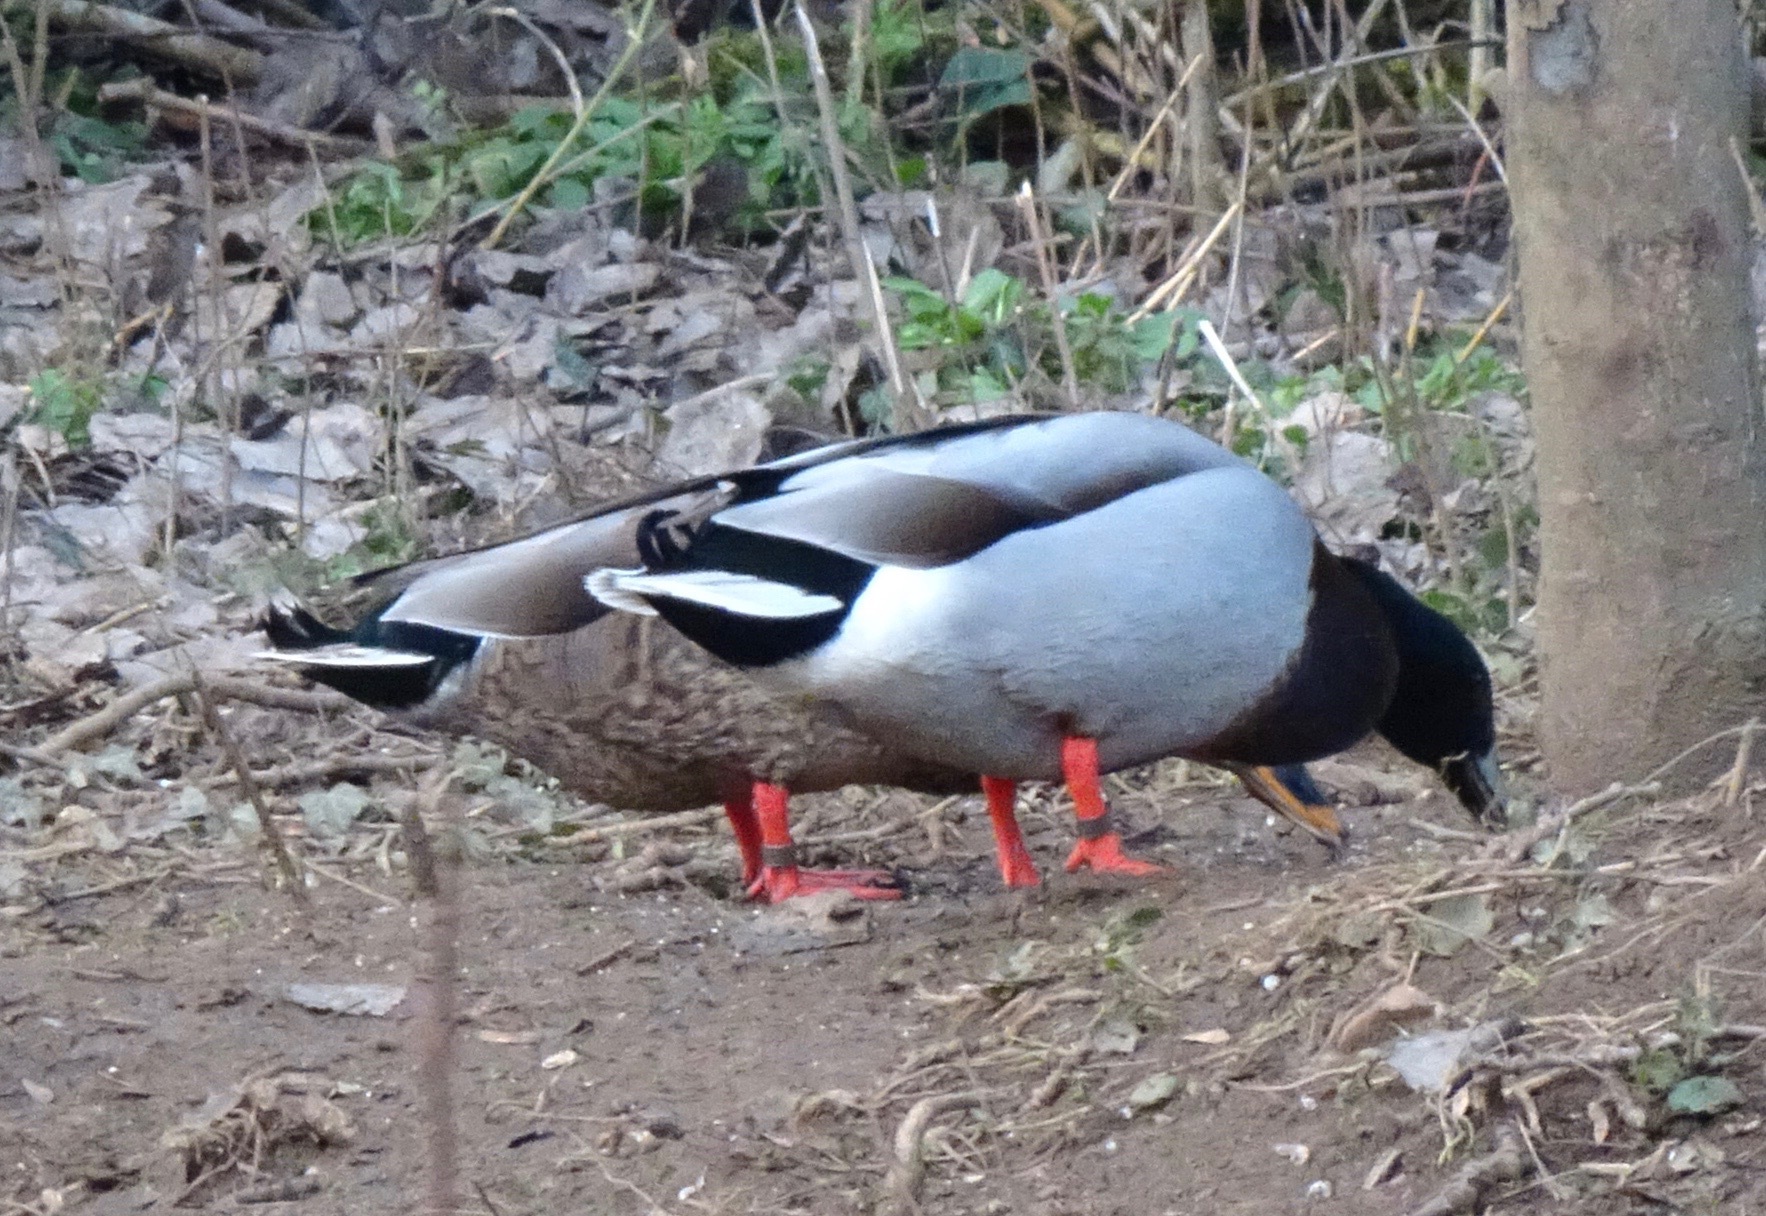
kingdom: Animalia
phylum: Chordata
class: Aves
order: Anseriformes
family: Anatidae
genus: Anas
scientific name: Anas platyrhynchos
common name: Mallard
